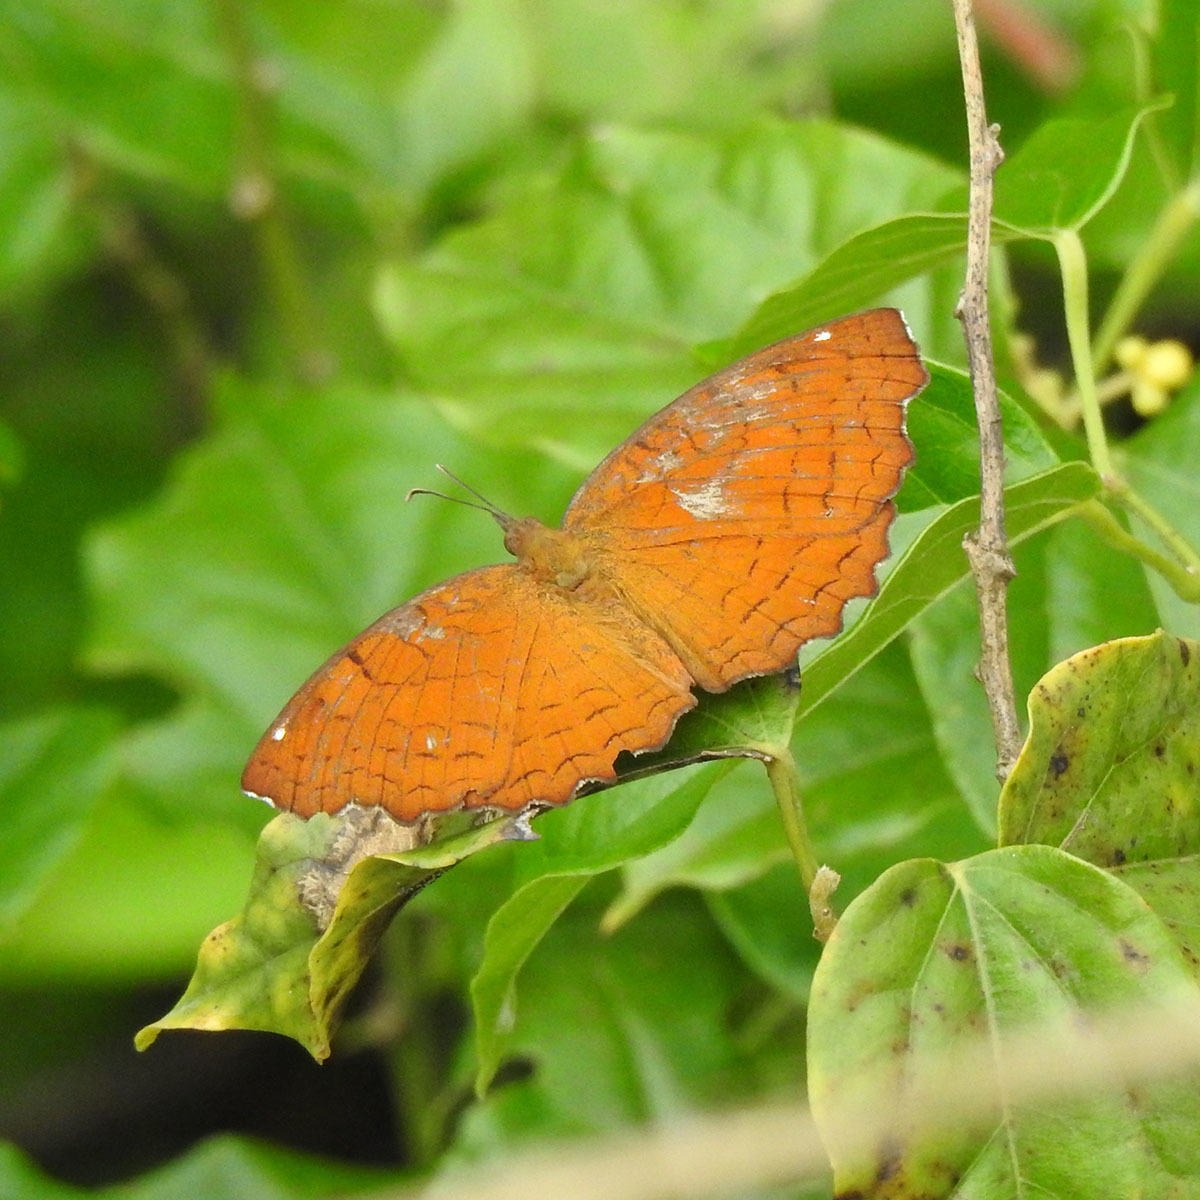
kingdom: Animalia
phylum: Arthropoda
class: Insecta
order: Lepidoptera
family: Nymphalidae
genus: Ariadne
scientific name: Ariadne ariadne
